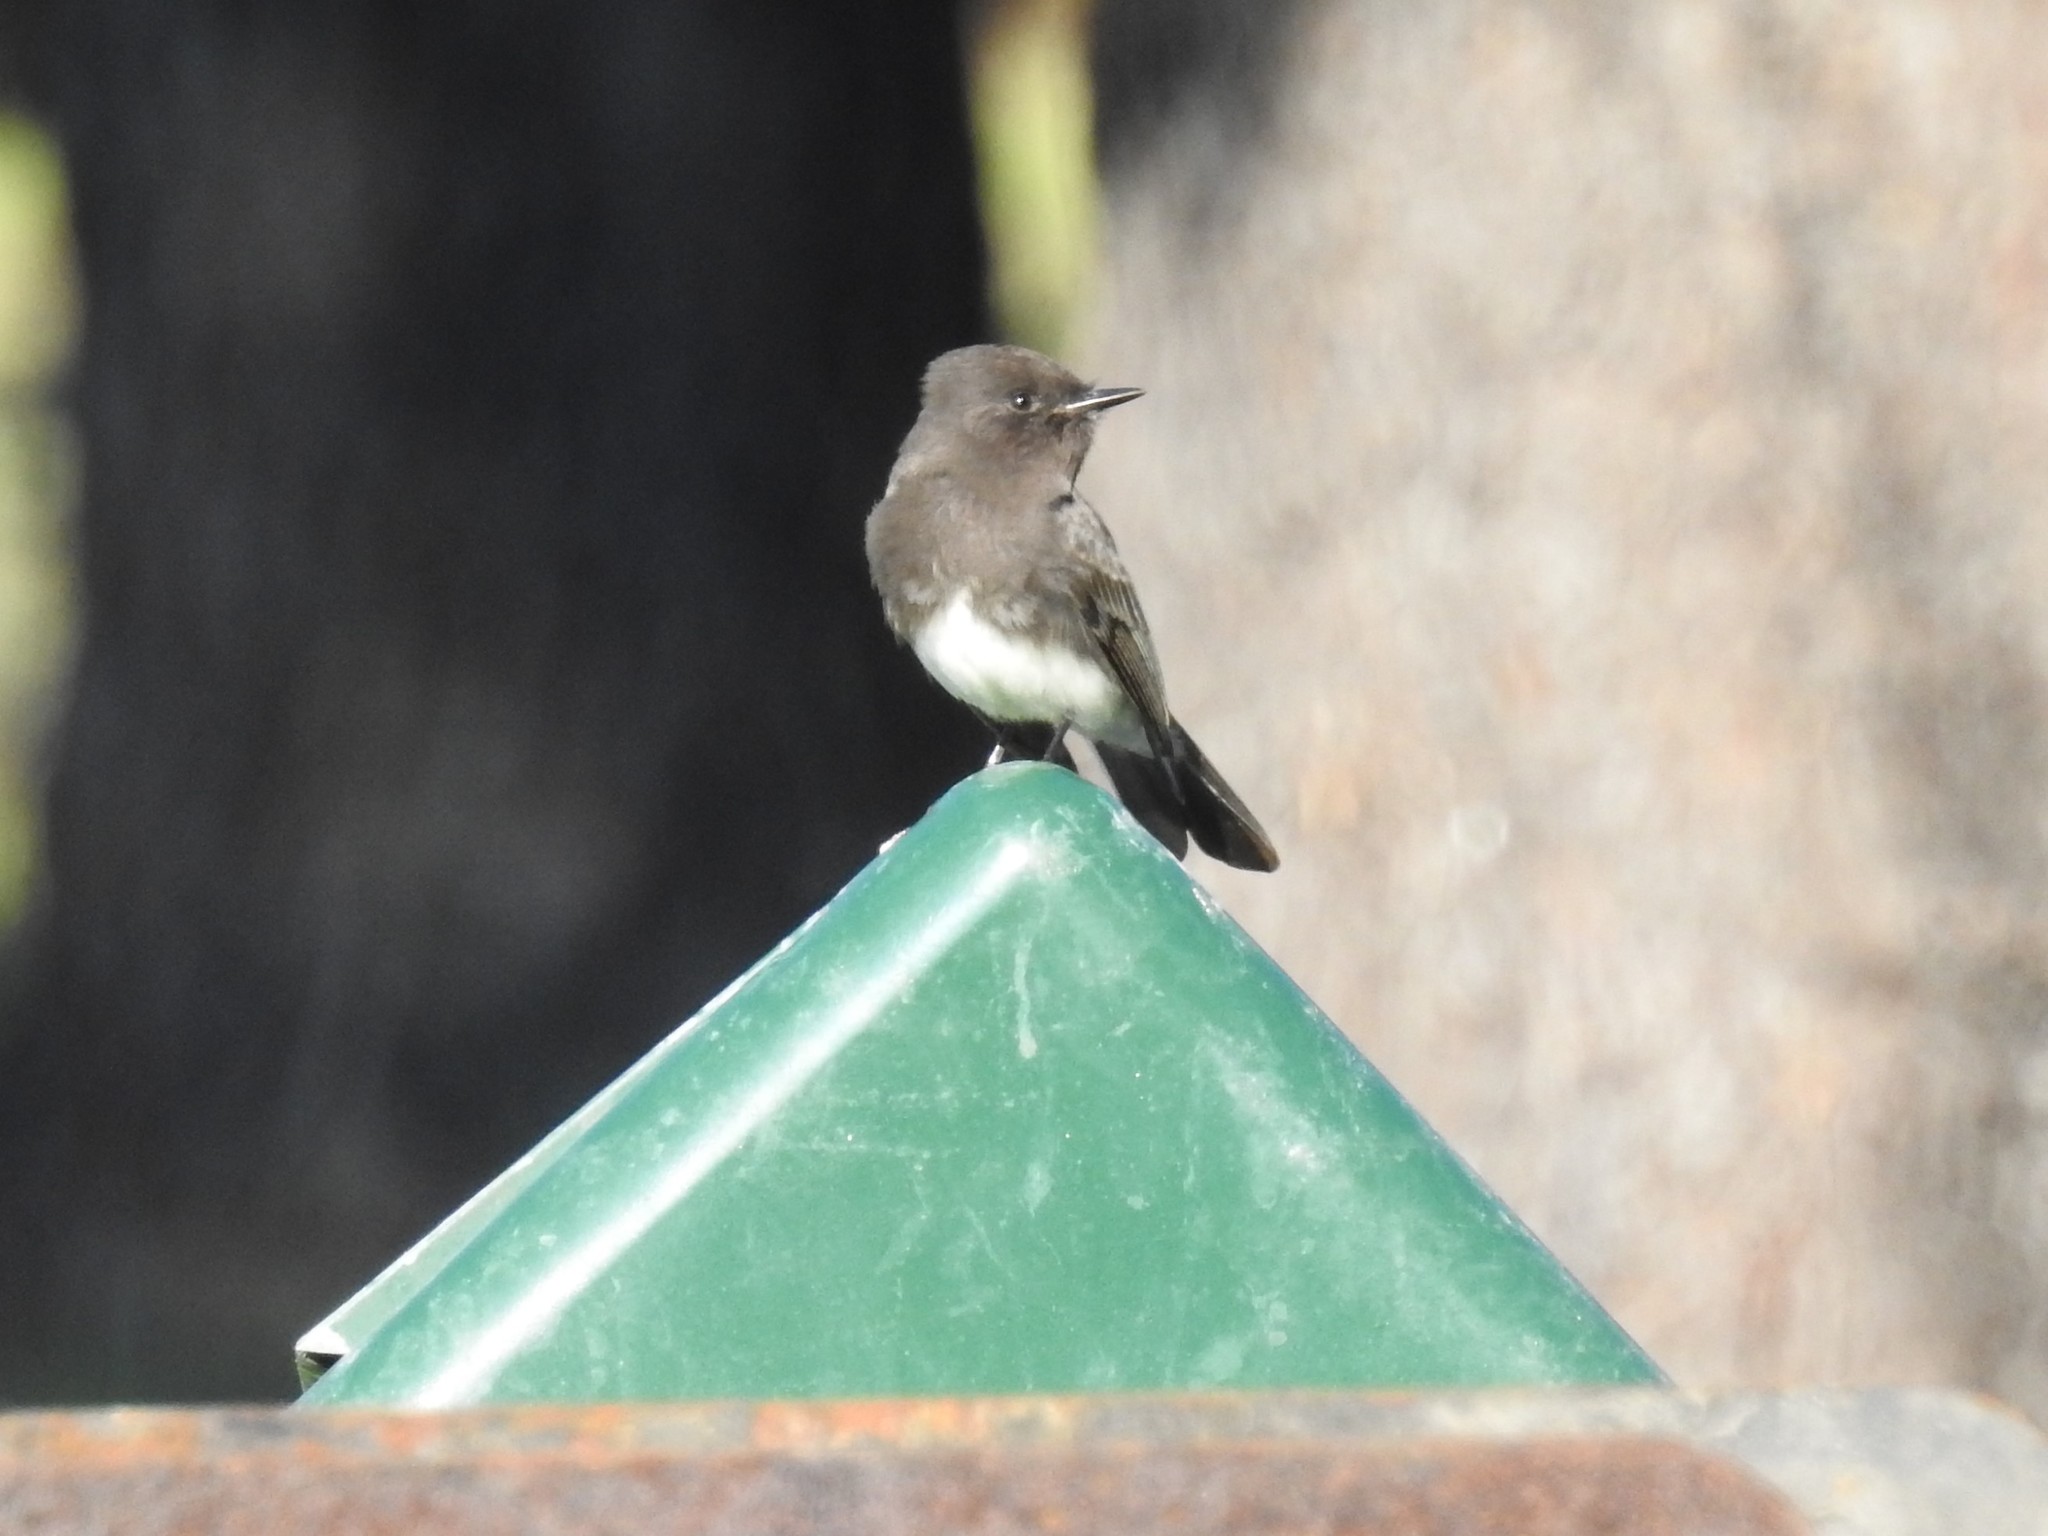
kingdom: Animalia
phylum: Chordata
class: Aves
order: Passeriformes
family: Tyrannidae
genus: Sayornis
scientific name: Sayornis nigricans
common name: Black phoebe
